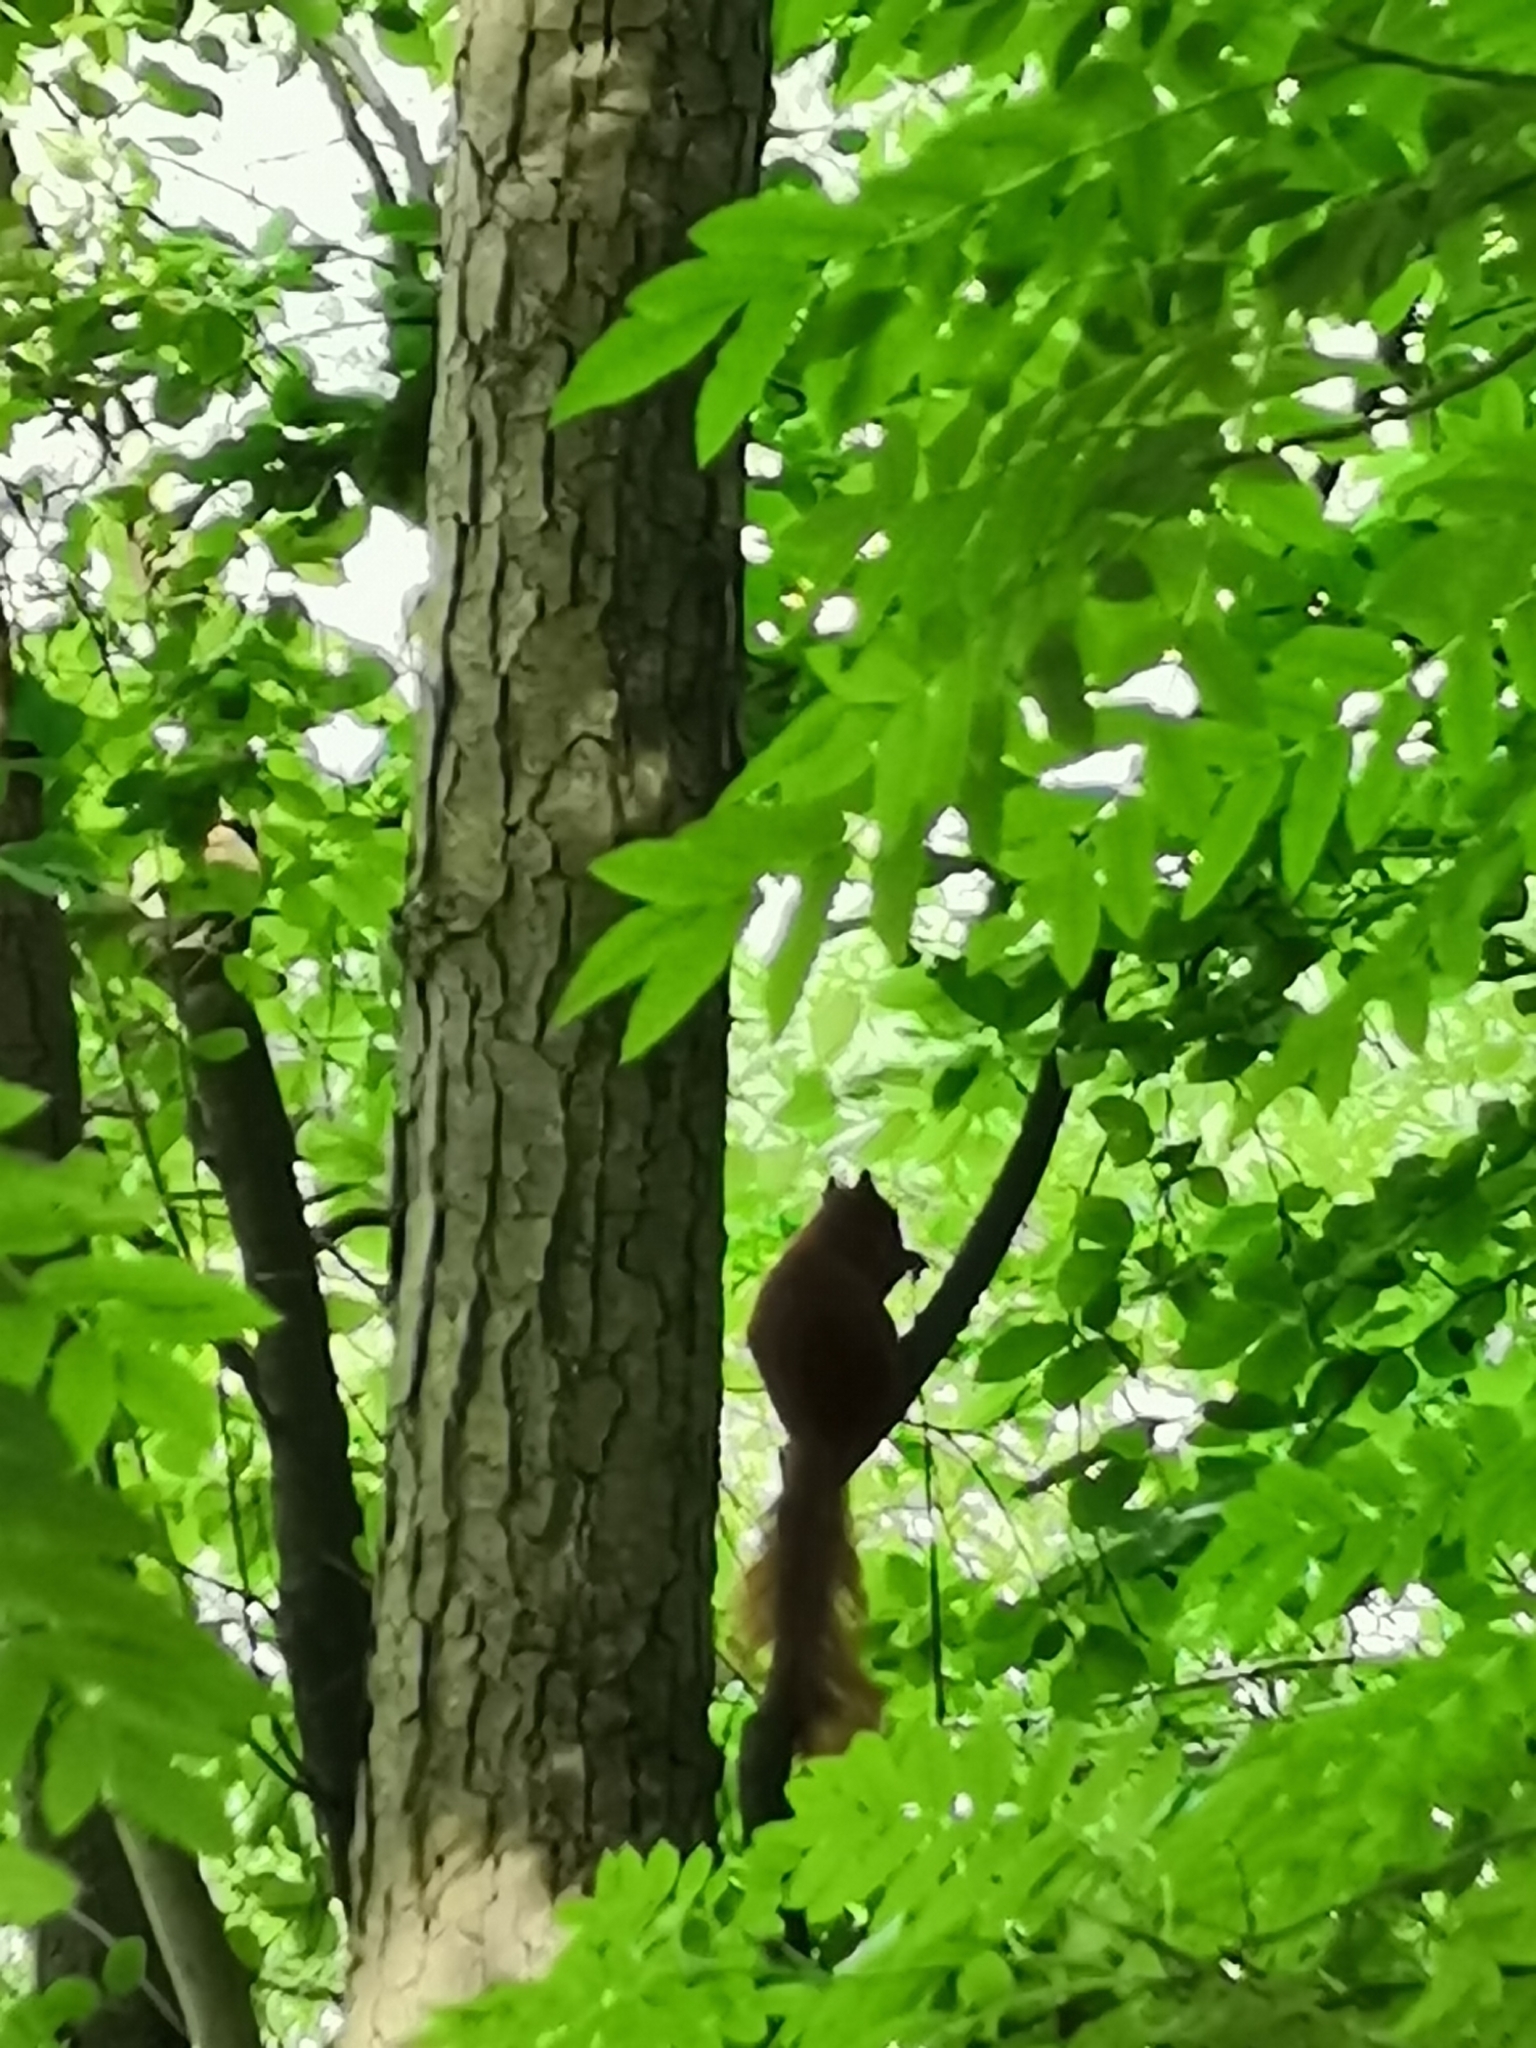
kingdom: Animalia
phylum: Chordata
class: Mammalia
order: Rodentia
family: Sciuridae
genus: Sciurus
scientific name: Sciurus vulgaris
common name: Eurasian red squirrel
